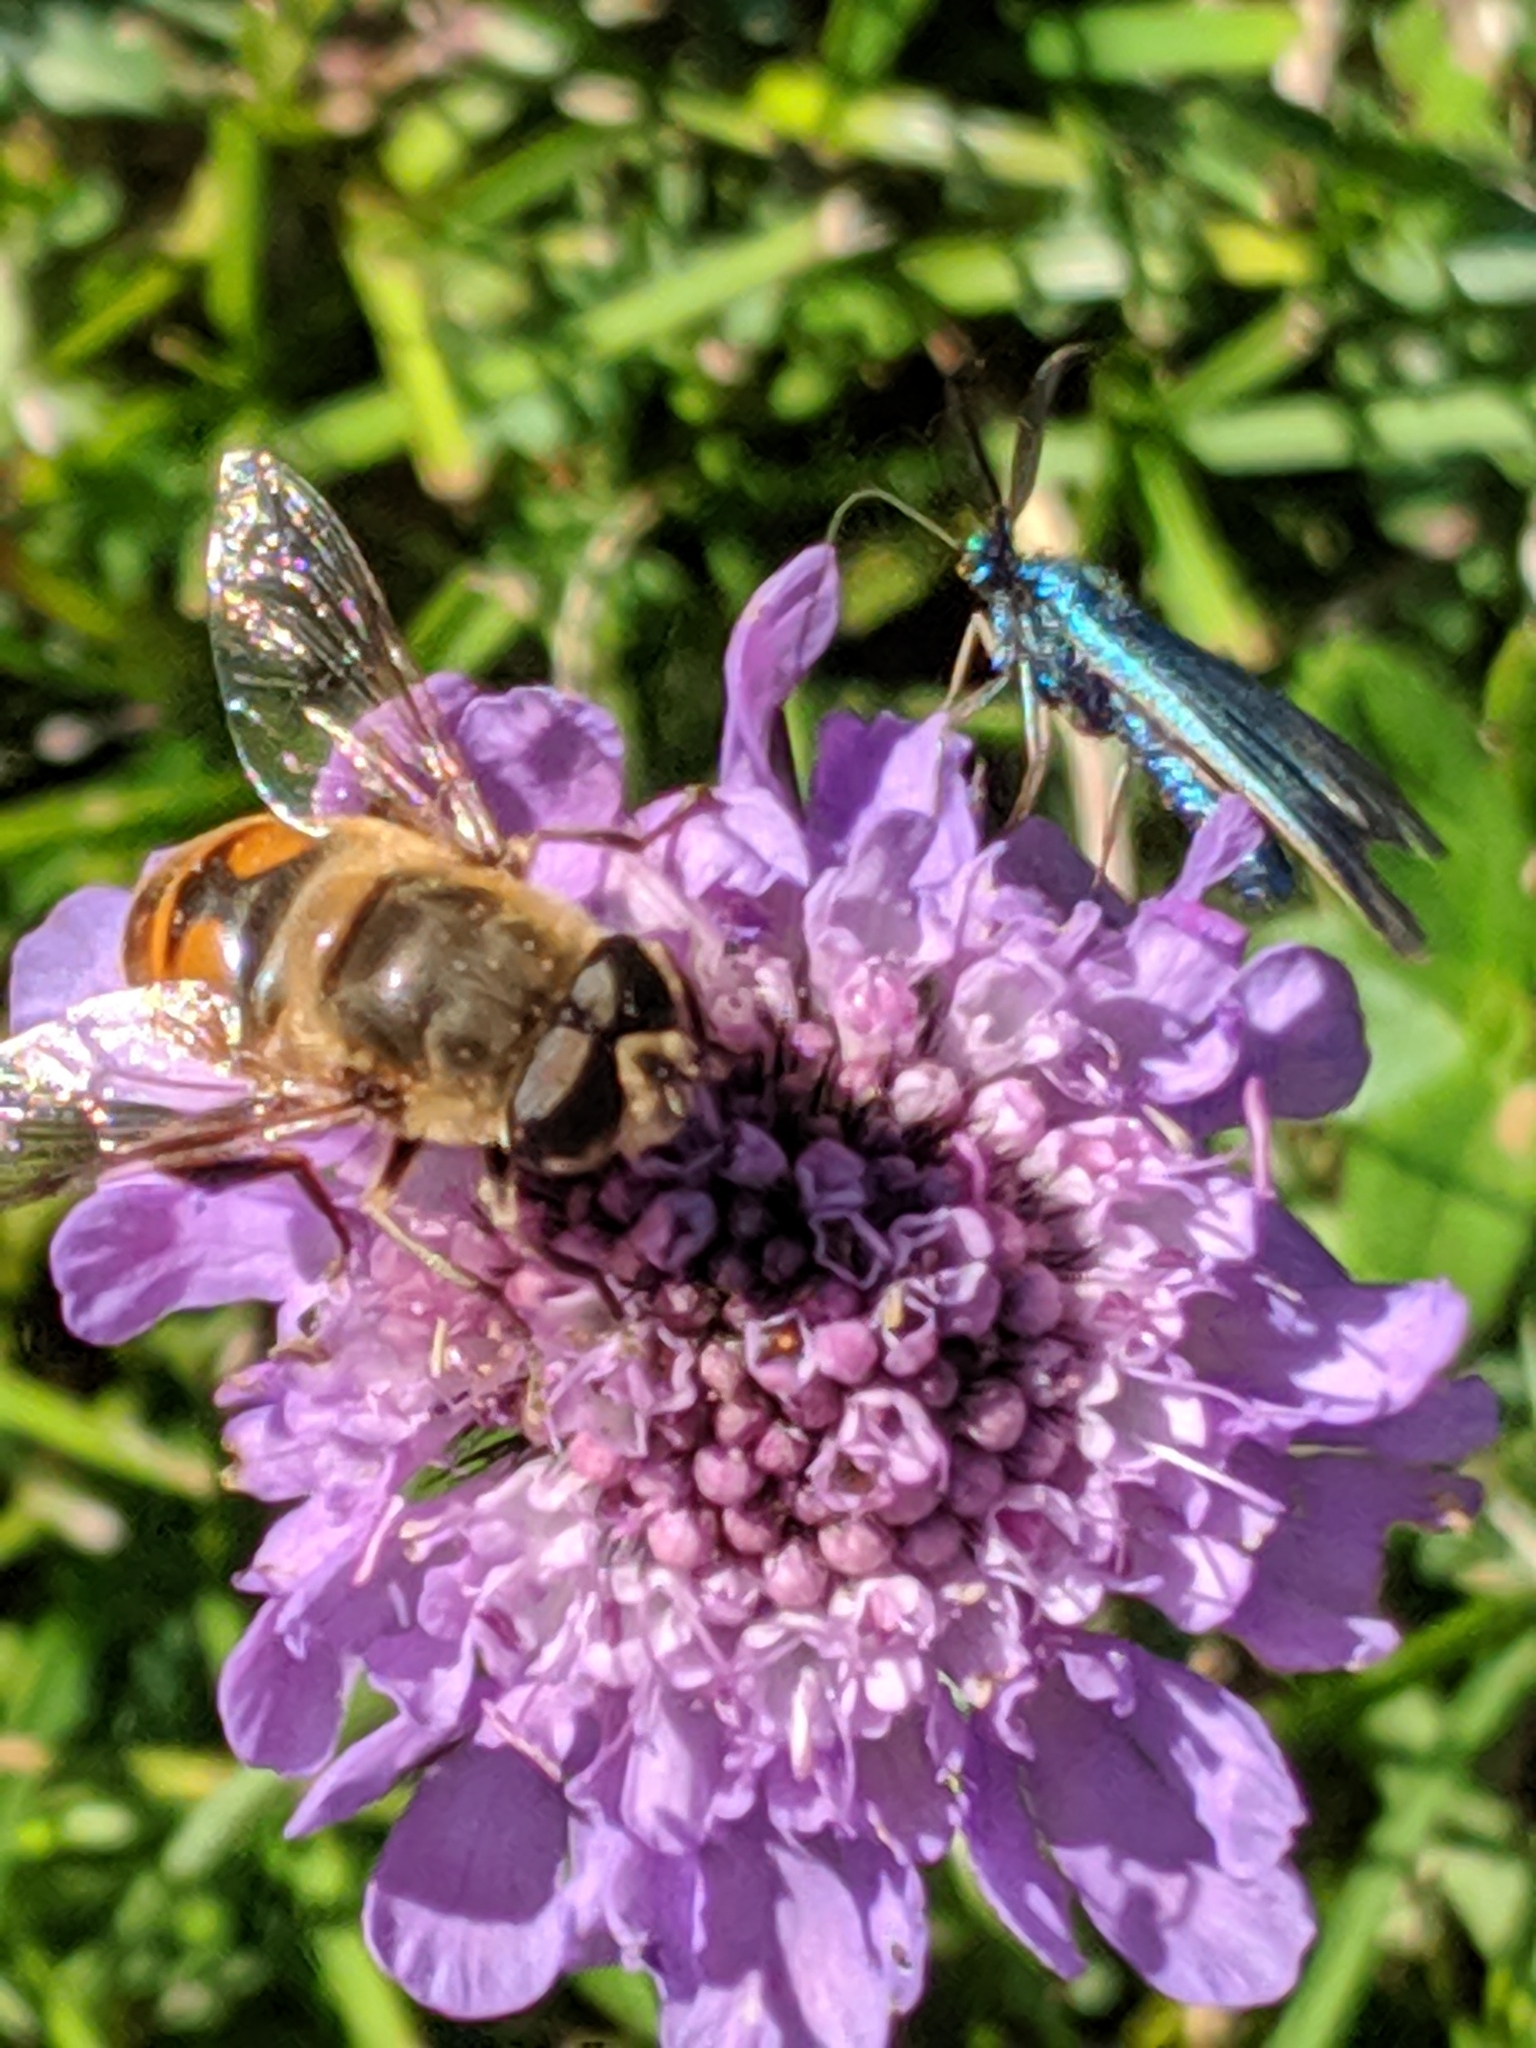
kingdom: Animalia
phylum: Arthropoda
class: Insecta
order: Diptera
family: Syrphidae
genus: Eristalis
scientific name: Eristalis tenax
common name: Drone fly
